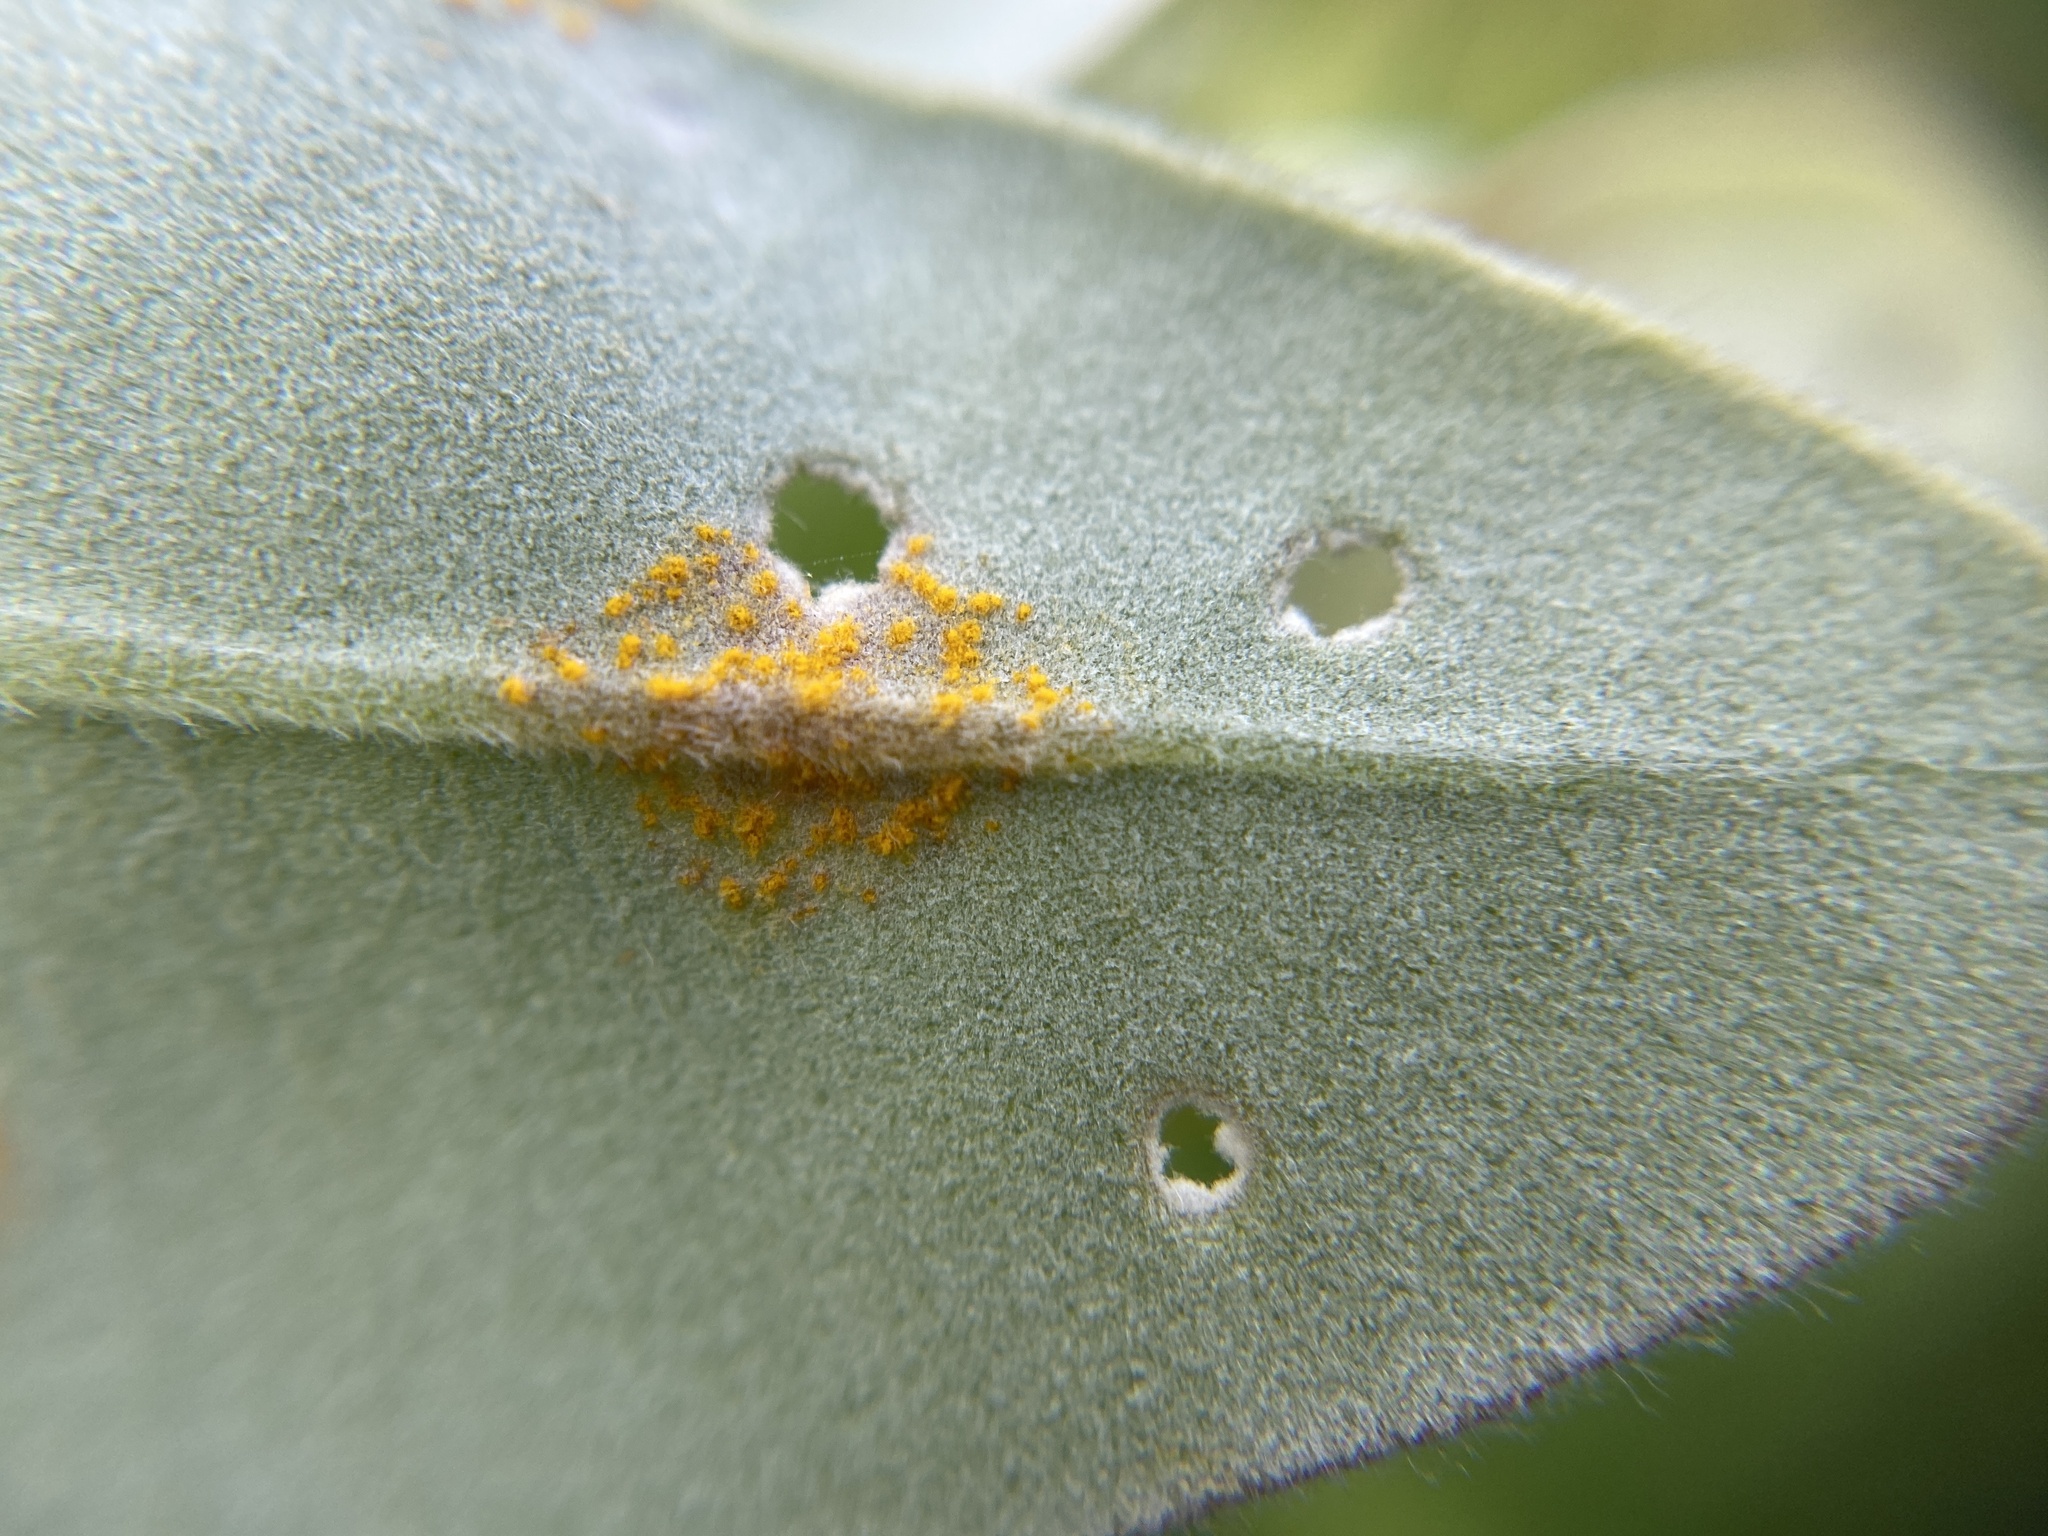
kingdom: Fungi
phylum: Basidiomycota
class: Pucciniomycetes
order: Pucciniales
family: Sphaerophragmiaceae
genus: Austropuccinia
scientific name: Austropuccinia psidii
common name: Myrtle rust
